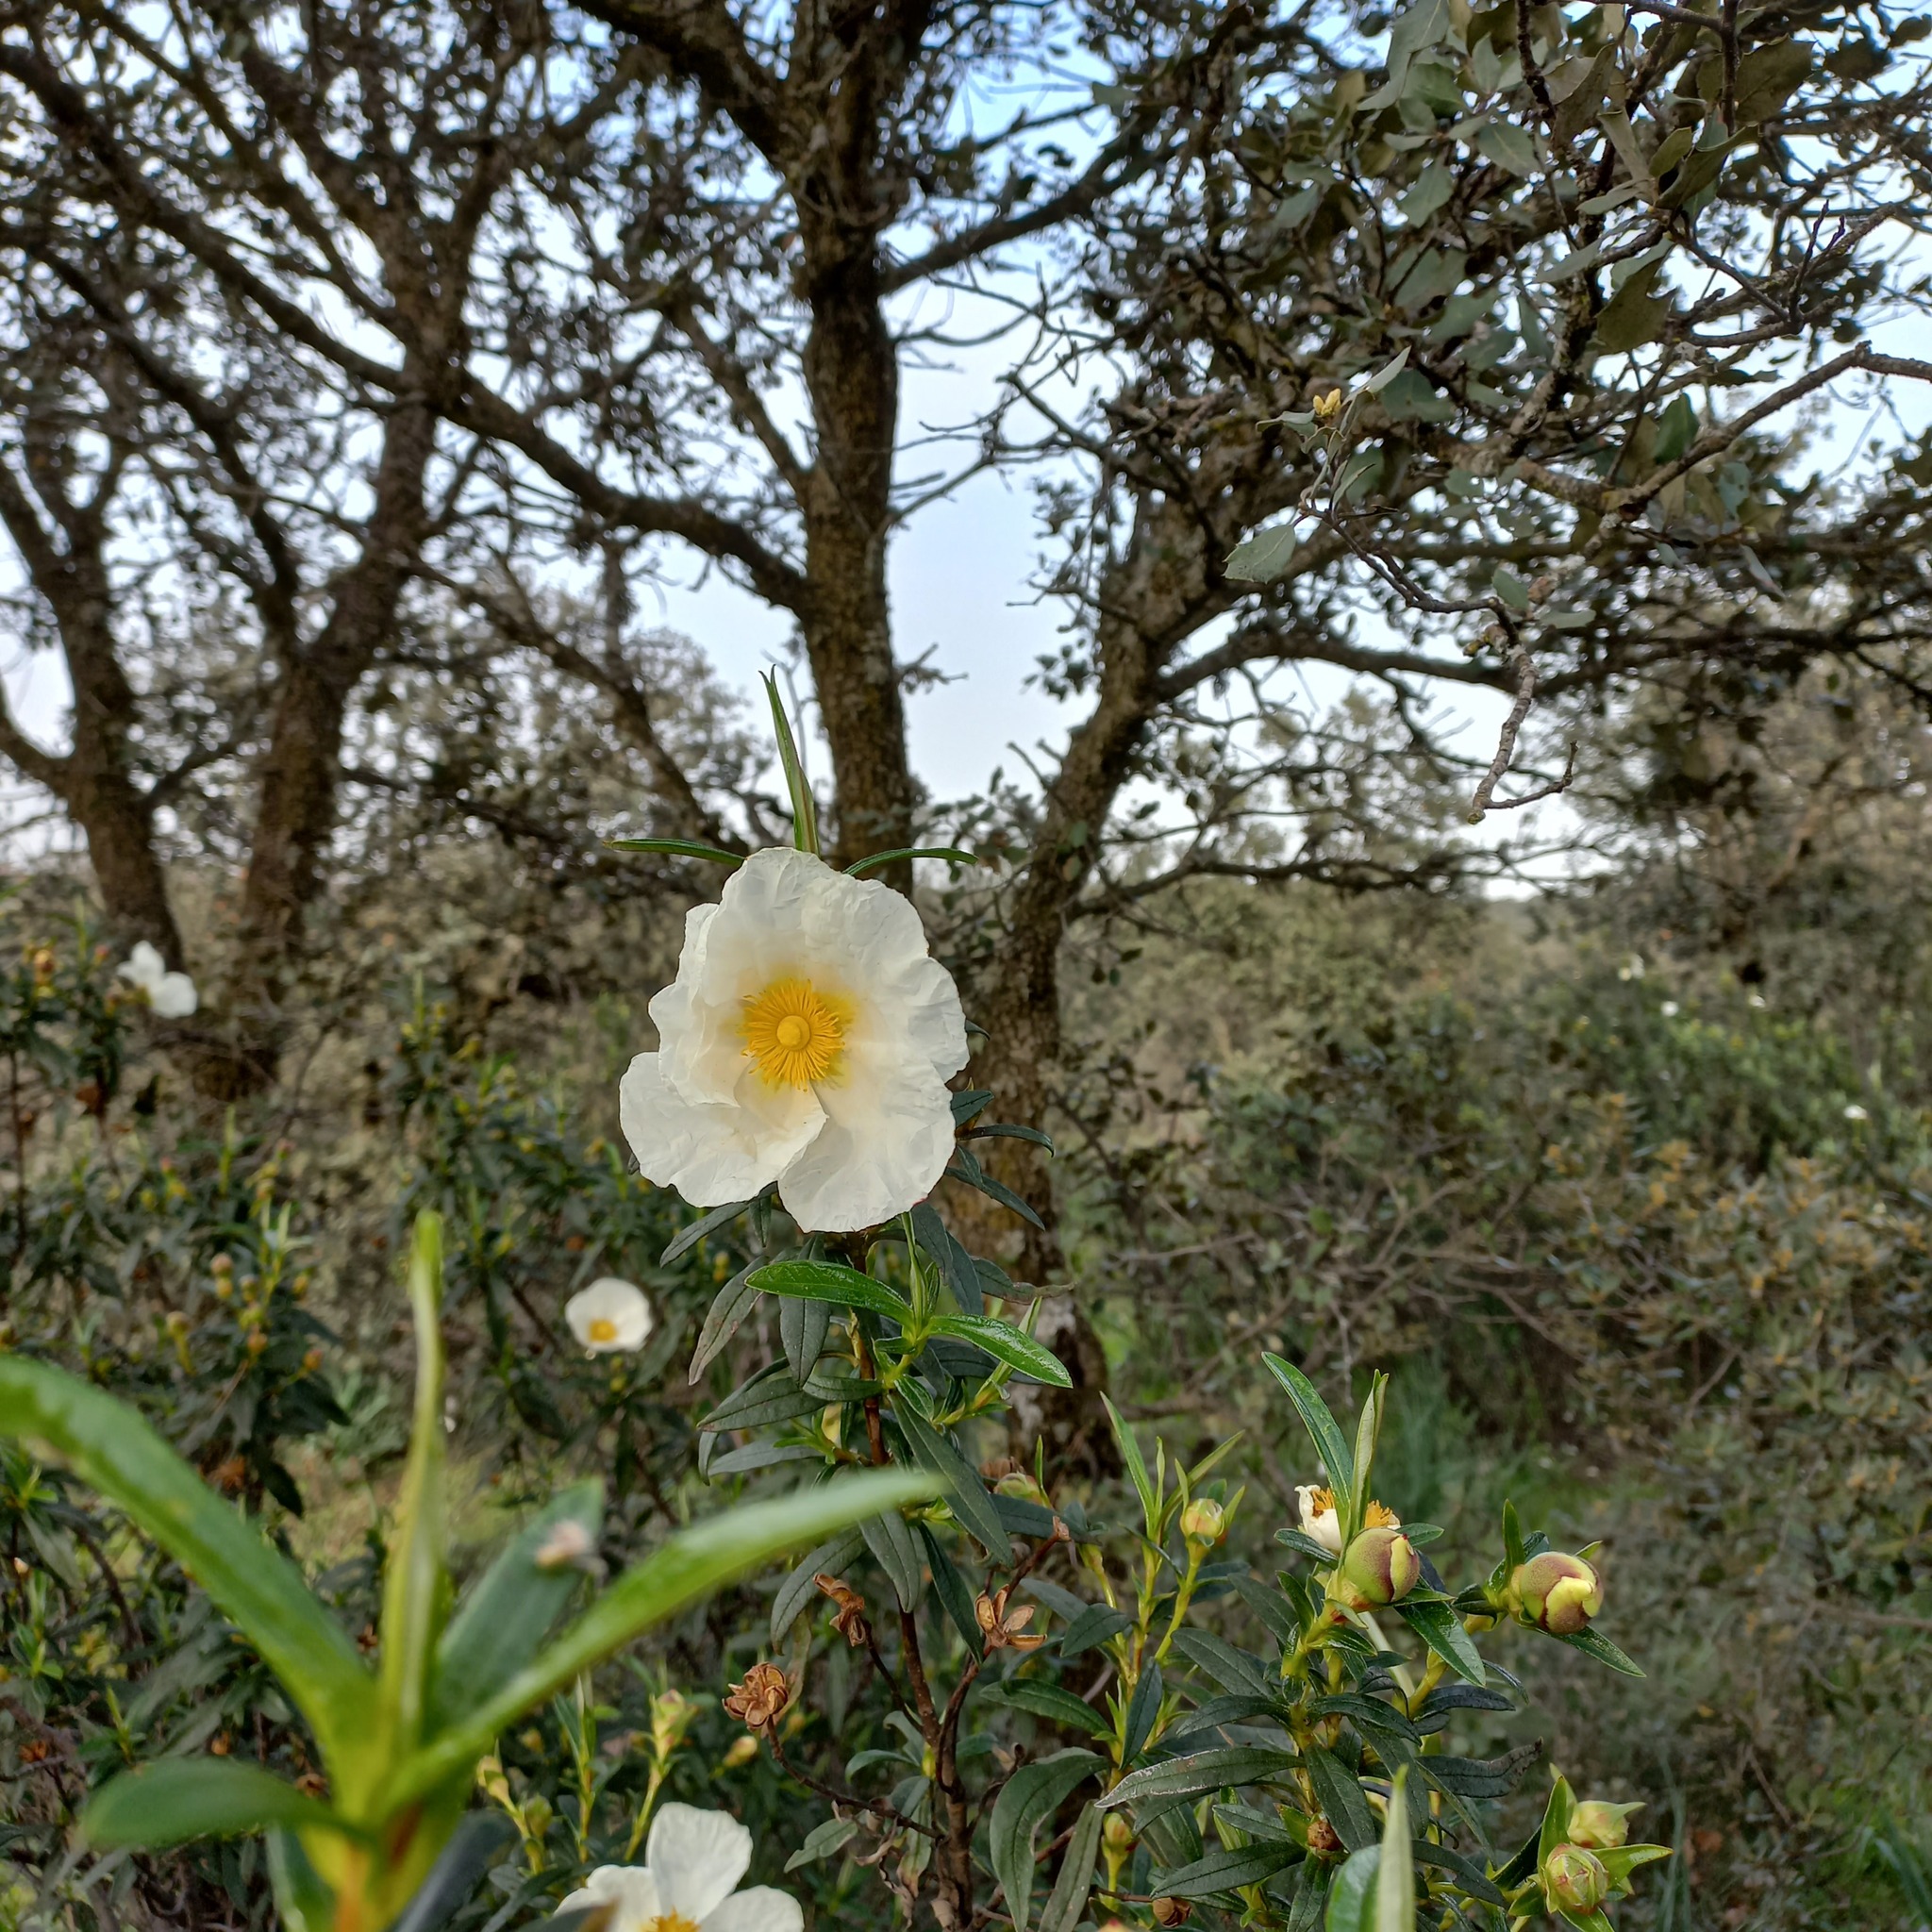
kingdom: Plantae
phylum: Tracheophyta
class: Magnoliopsida
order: Malvales
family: Cistaceae
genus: Cistus
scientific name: Cistus ladanifer
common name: Common gum cistus
